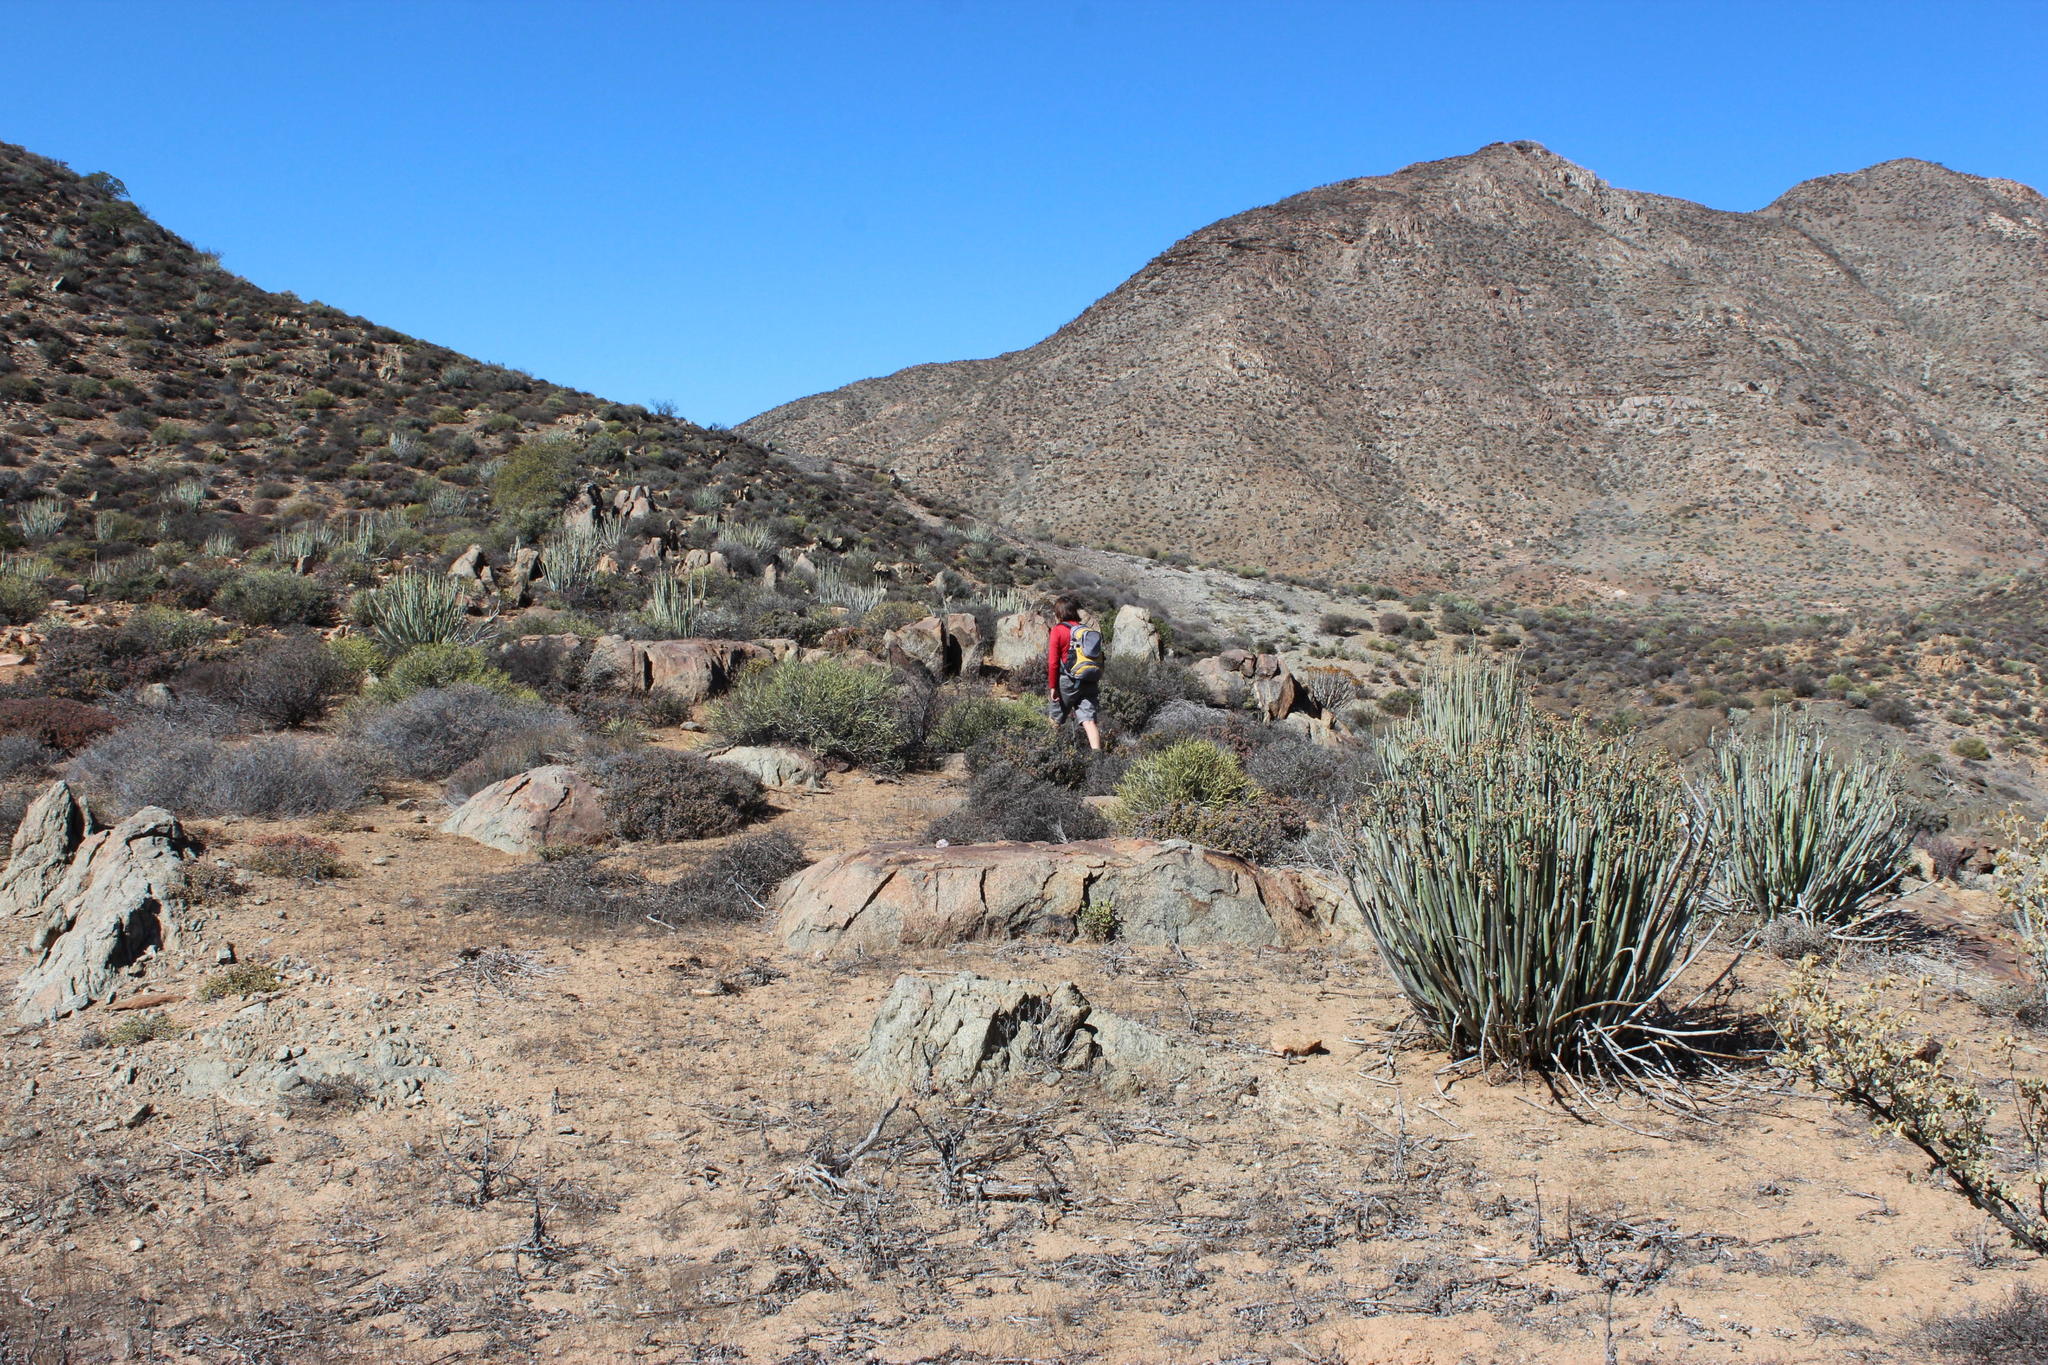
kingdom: Plantae
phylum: Tracheophyta
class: Magnoliopsida
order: Malpighiales
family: Euphorbiaceae
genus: Euphorbia
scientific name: Euphorbia dregeana
